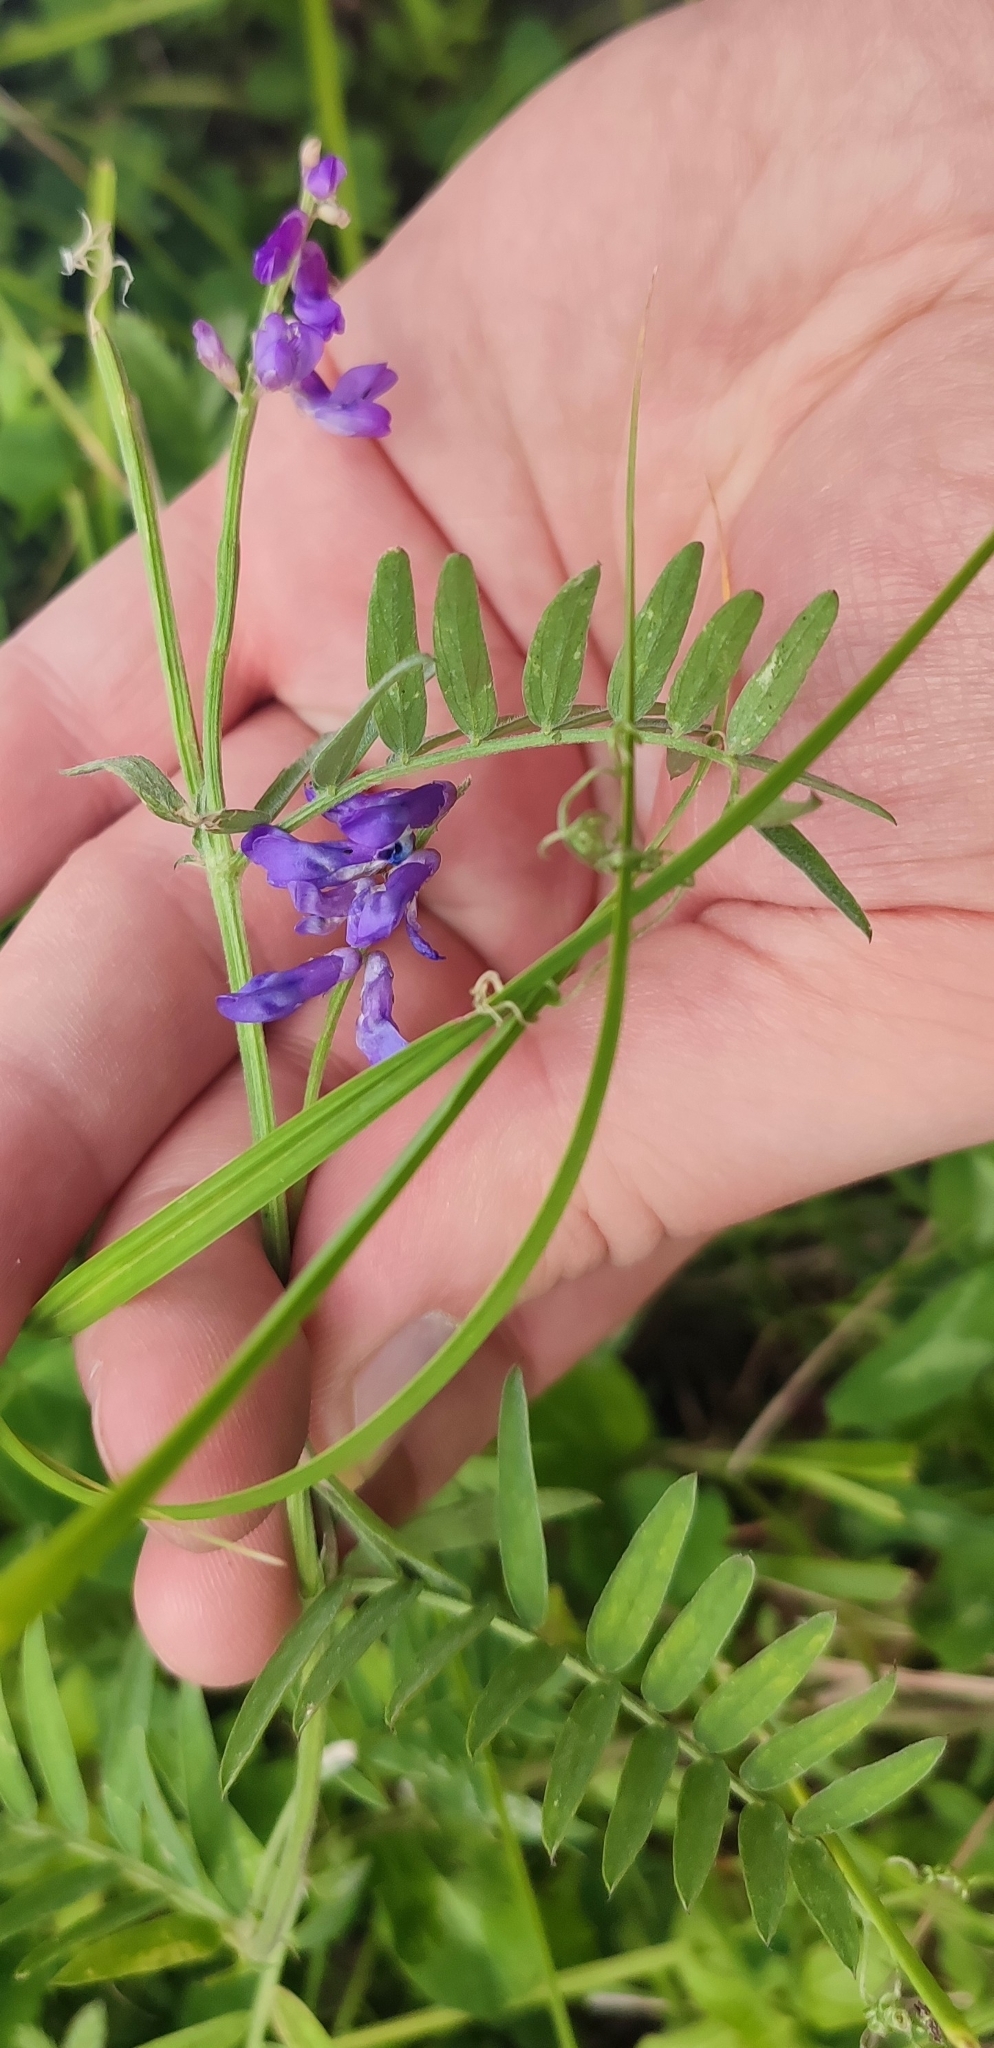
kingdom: Plantae
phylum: Tracheophyta
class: Magnoliopsida
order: Fabales
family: Fabaceae
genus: Vicia
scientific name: Vicia cracca
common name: Bird vetch
